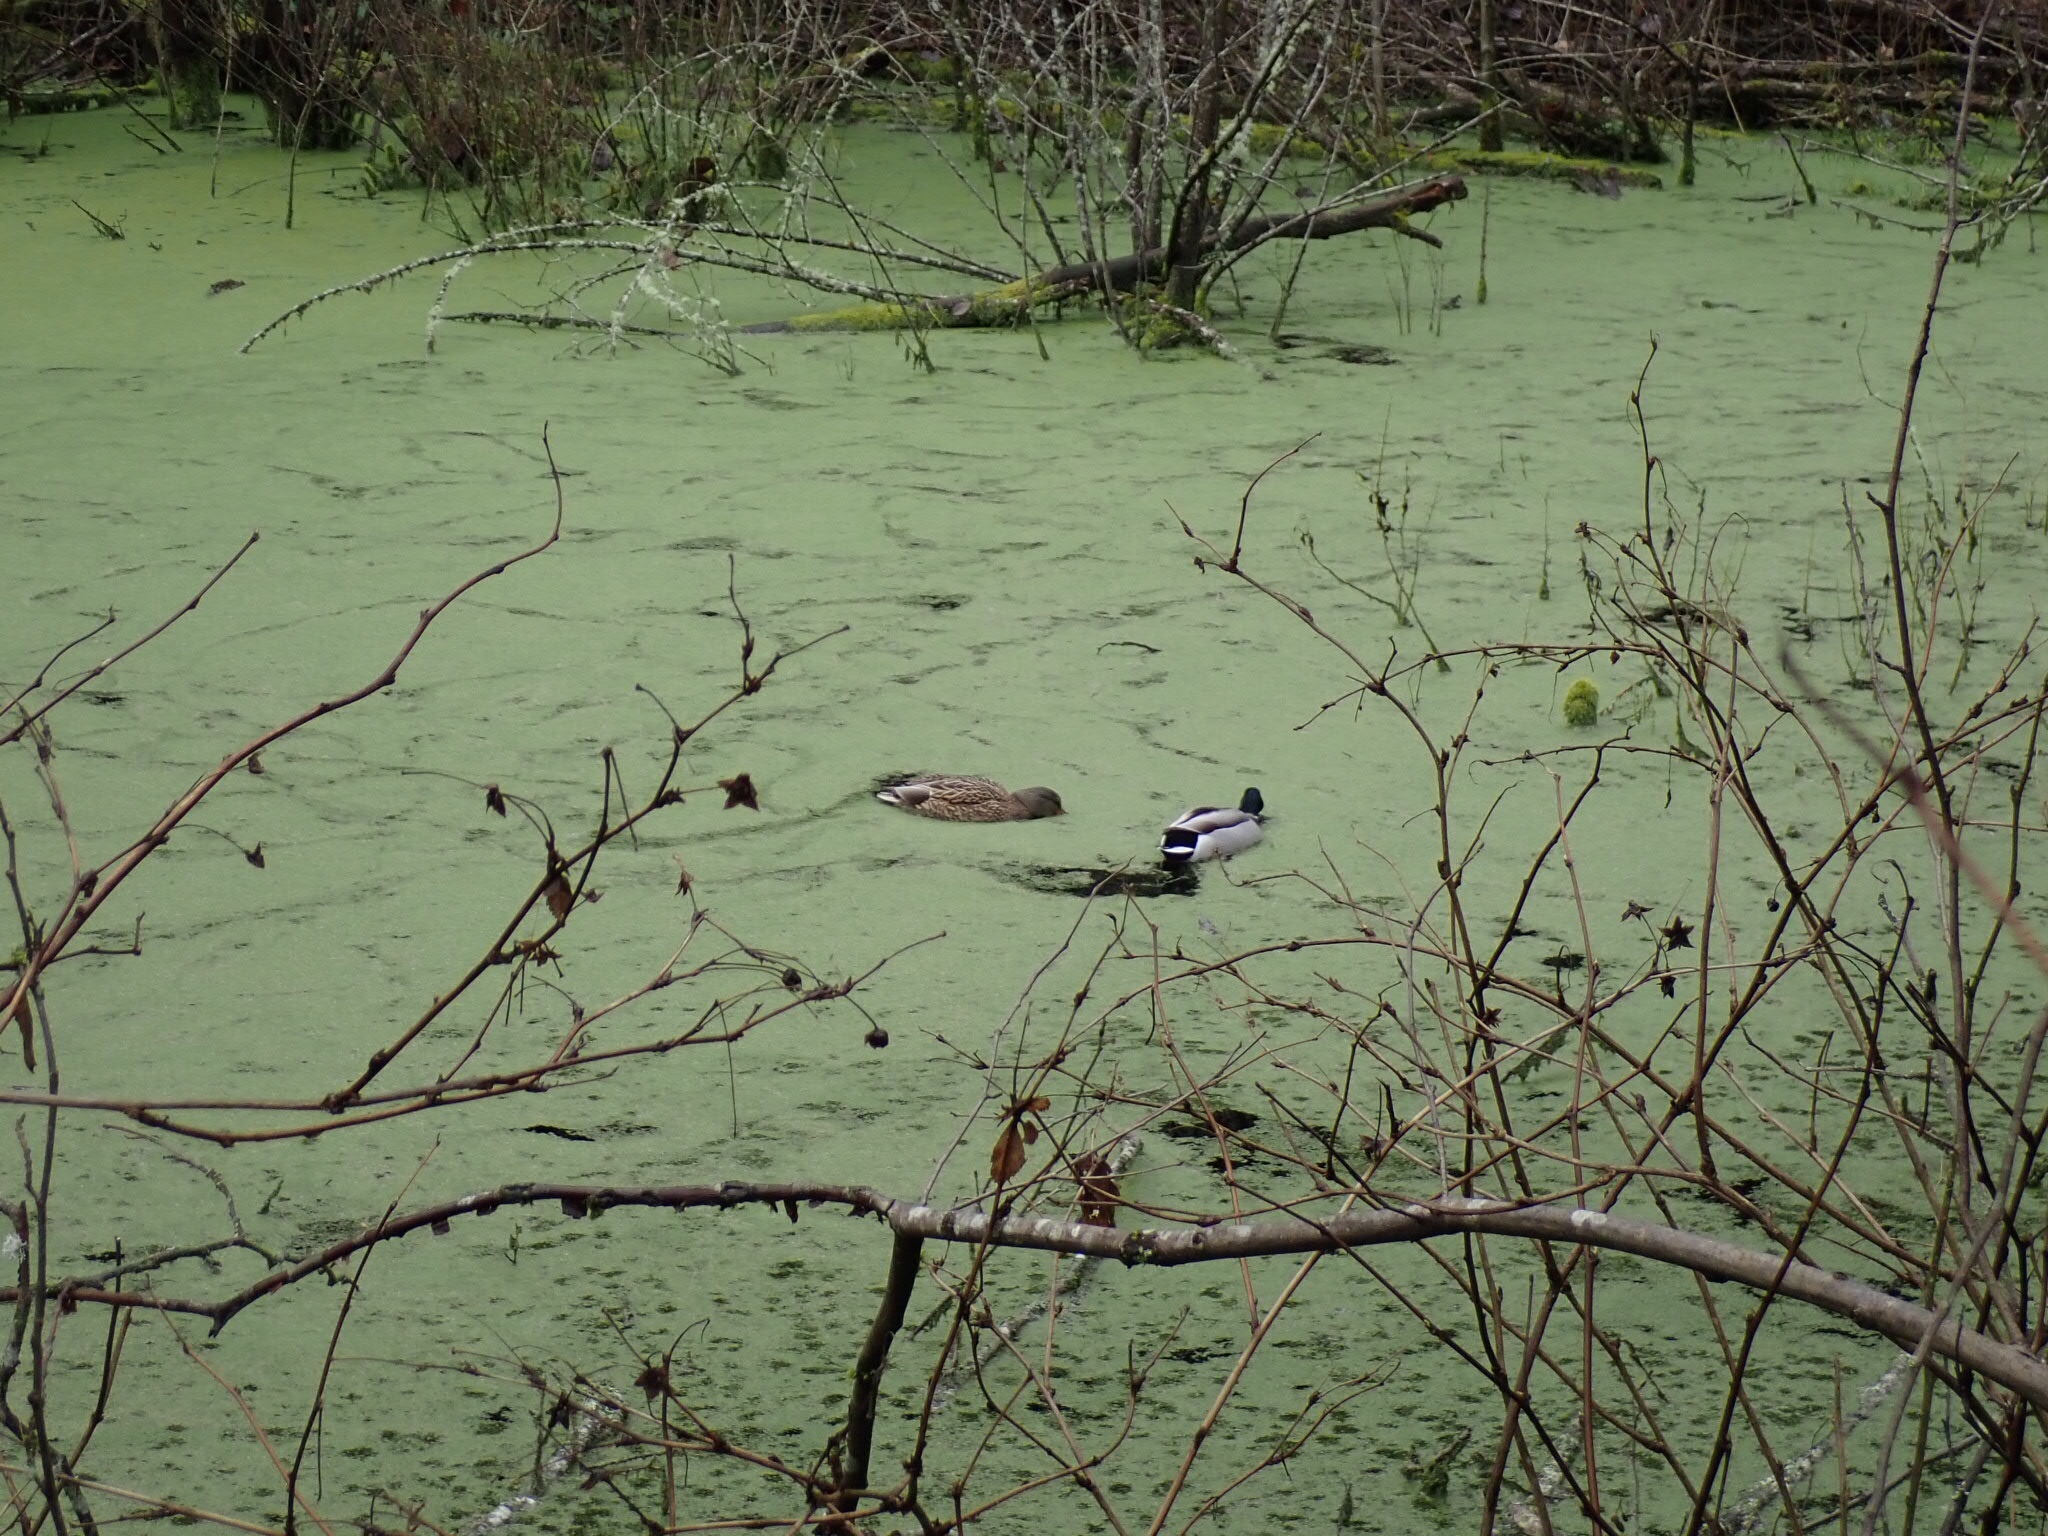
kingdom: Animalia
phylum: Chordata
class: Aves
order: Anseriformes
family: Anatidae
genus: Anas
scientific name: Anas platyrhynchos
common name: Mallard
